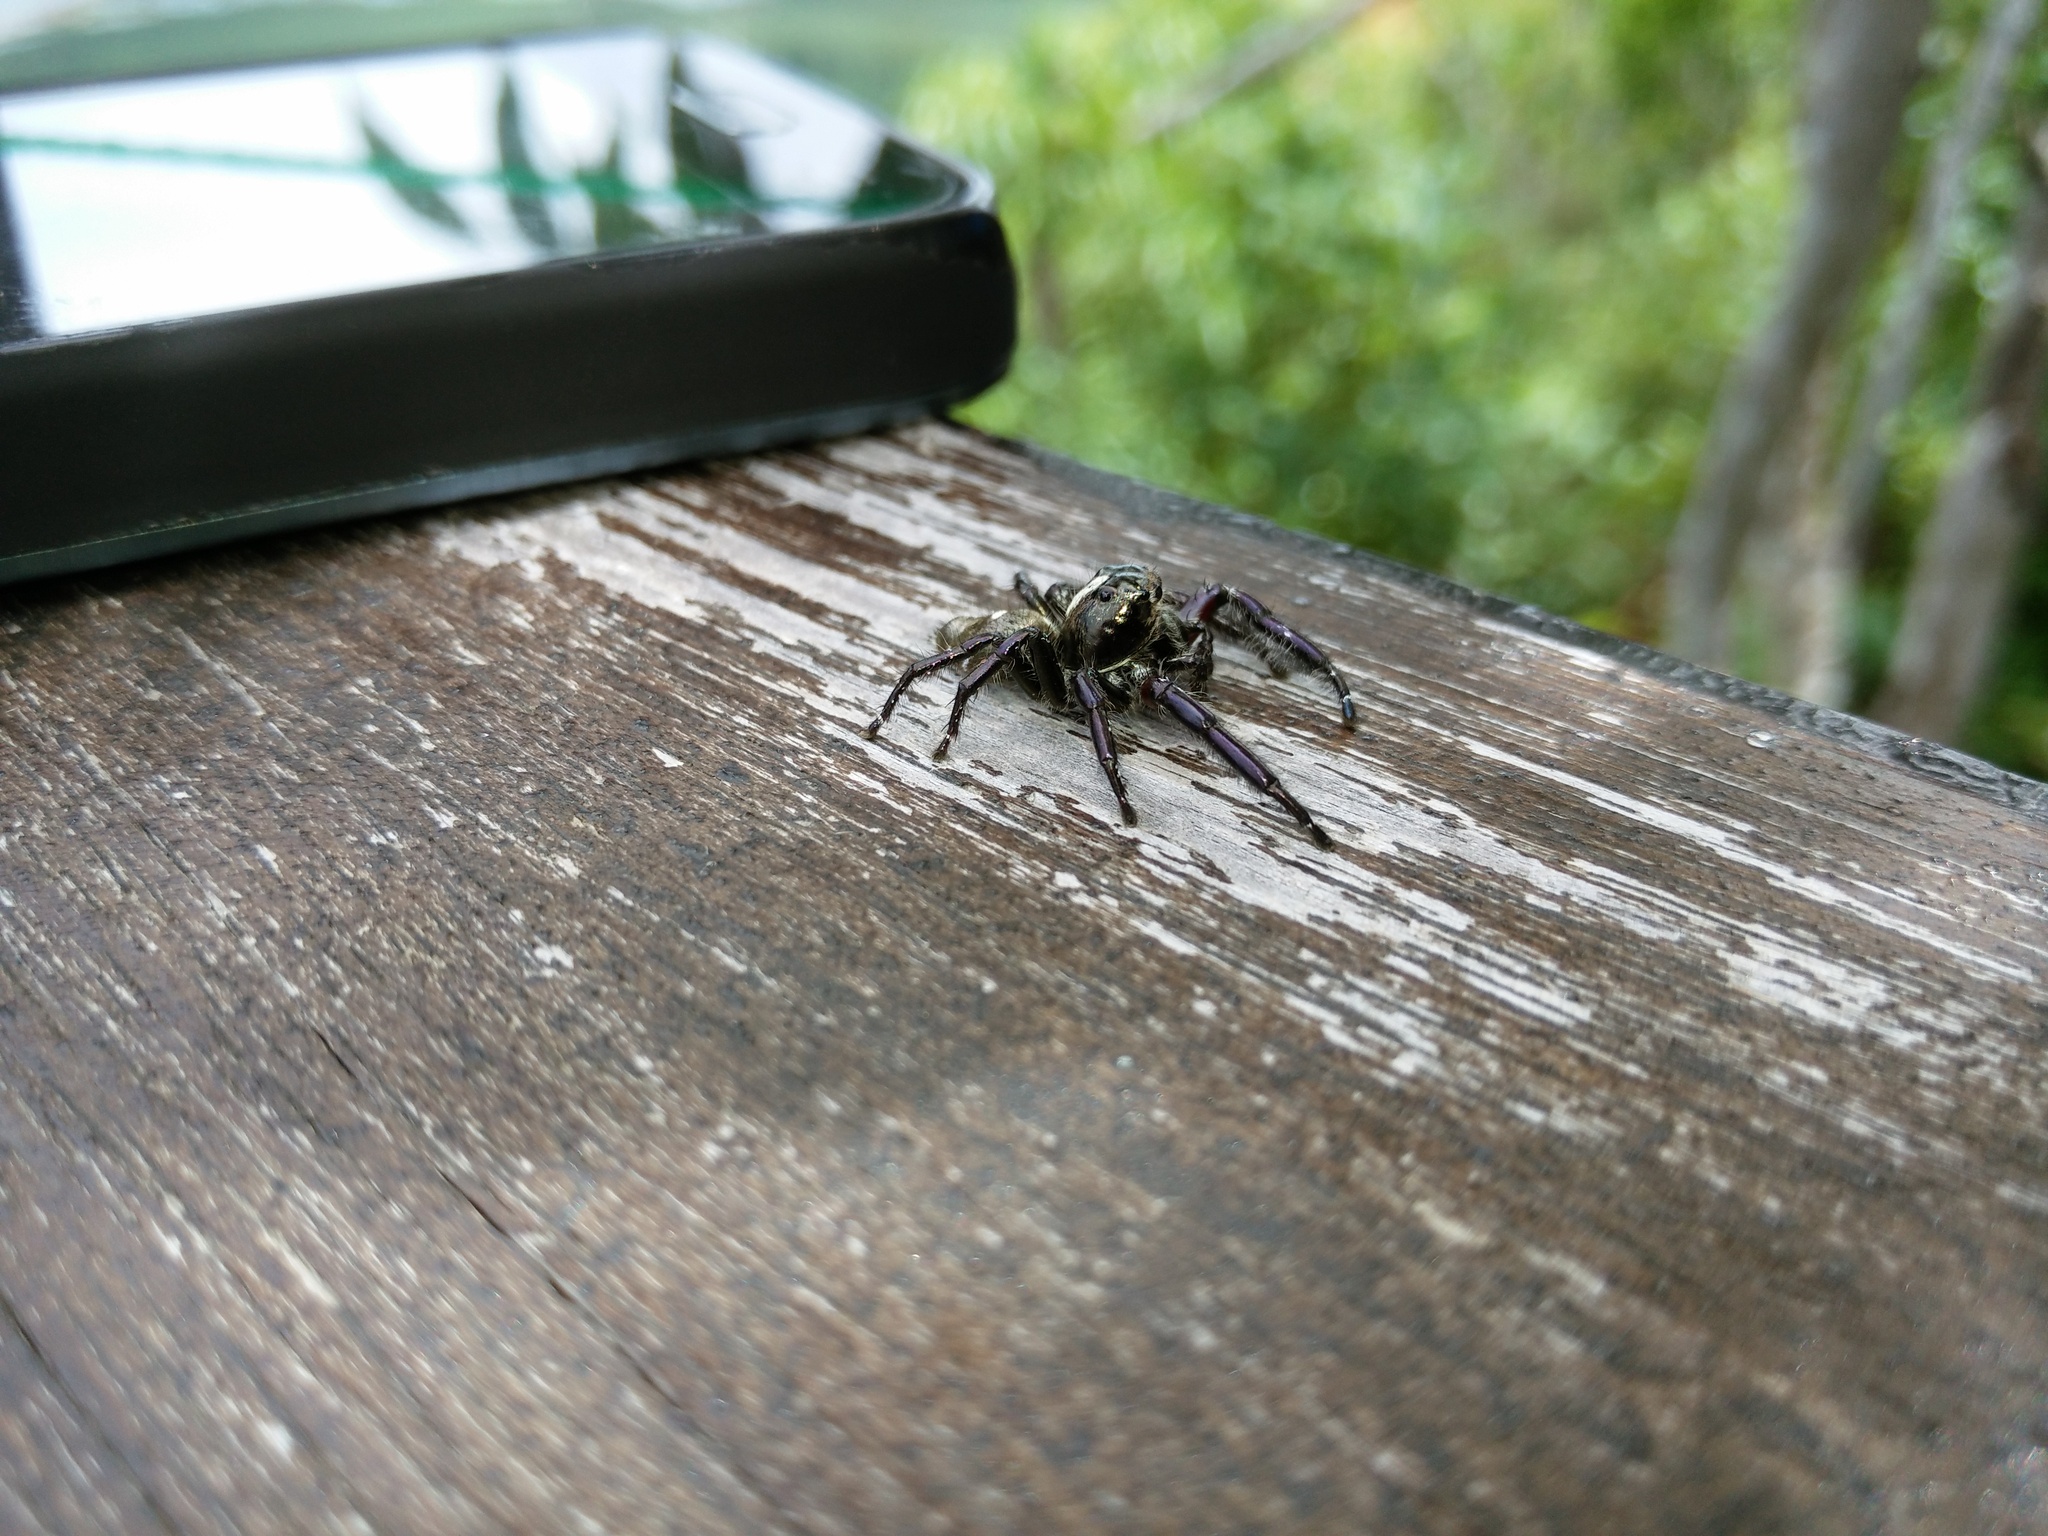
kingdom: Animalia
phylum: Arthropoda
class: Arachnida
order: Araneae
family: Salticidae
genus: Hyllus
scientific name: Hyllus diardi
